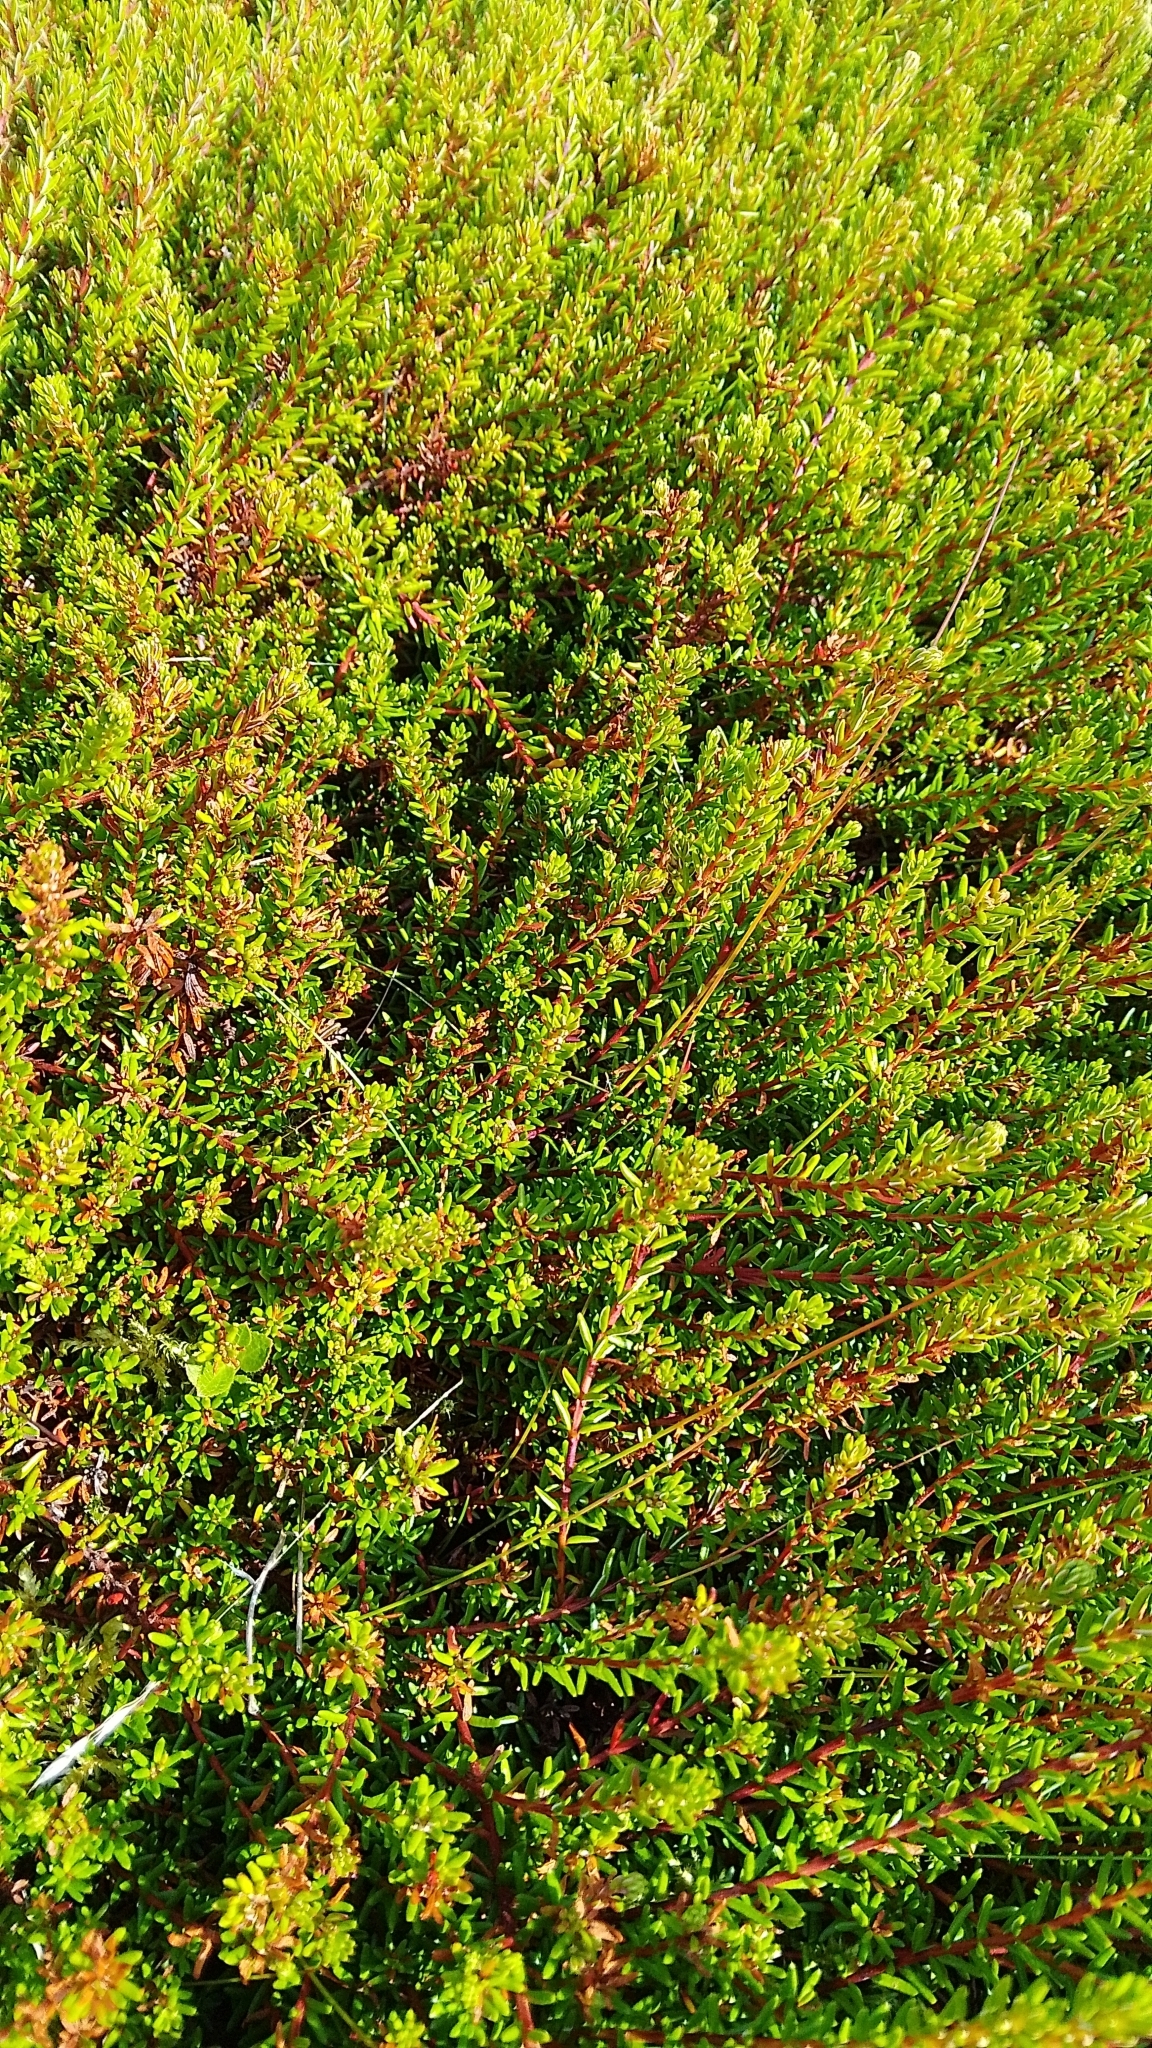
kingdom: Plantae
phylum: Tracheophyta
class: Magnoliopsida
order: Ericales
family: Ericaceae
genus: Empetrum
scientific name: Empetrum nigrum
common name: Black crowberry
